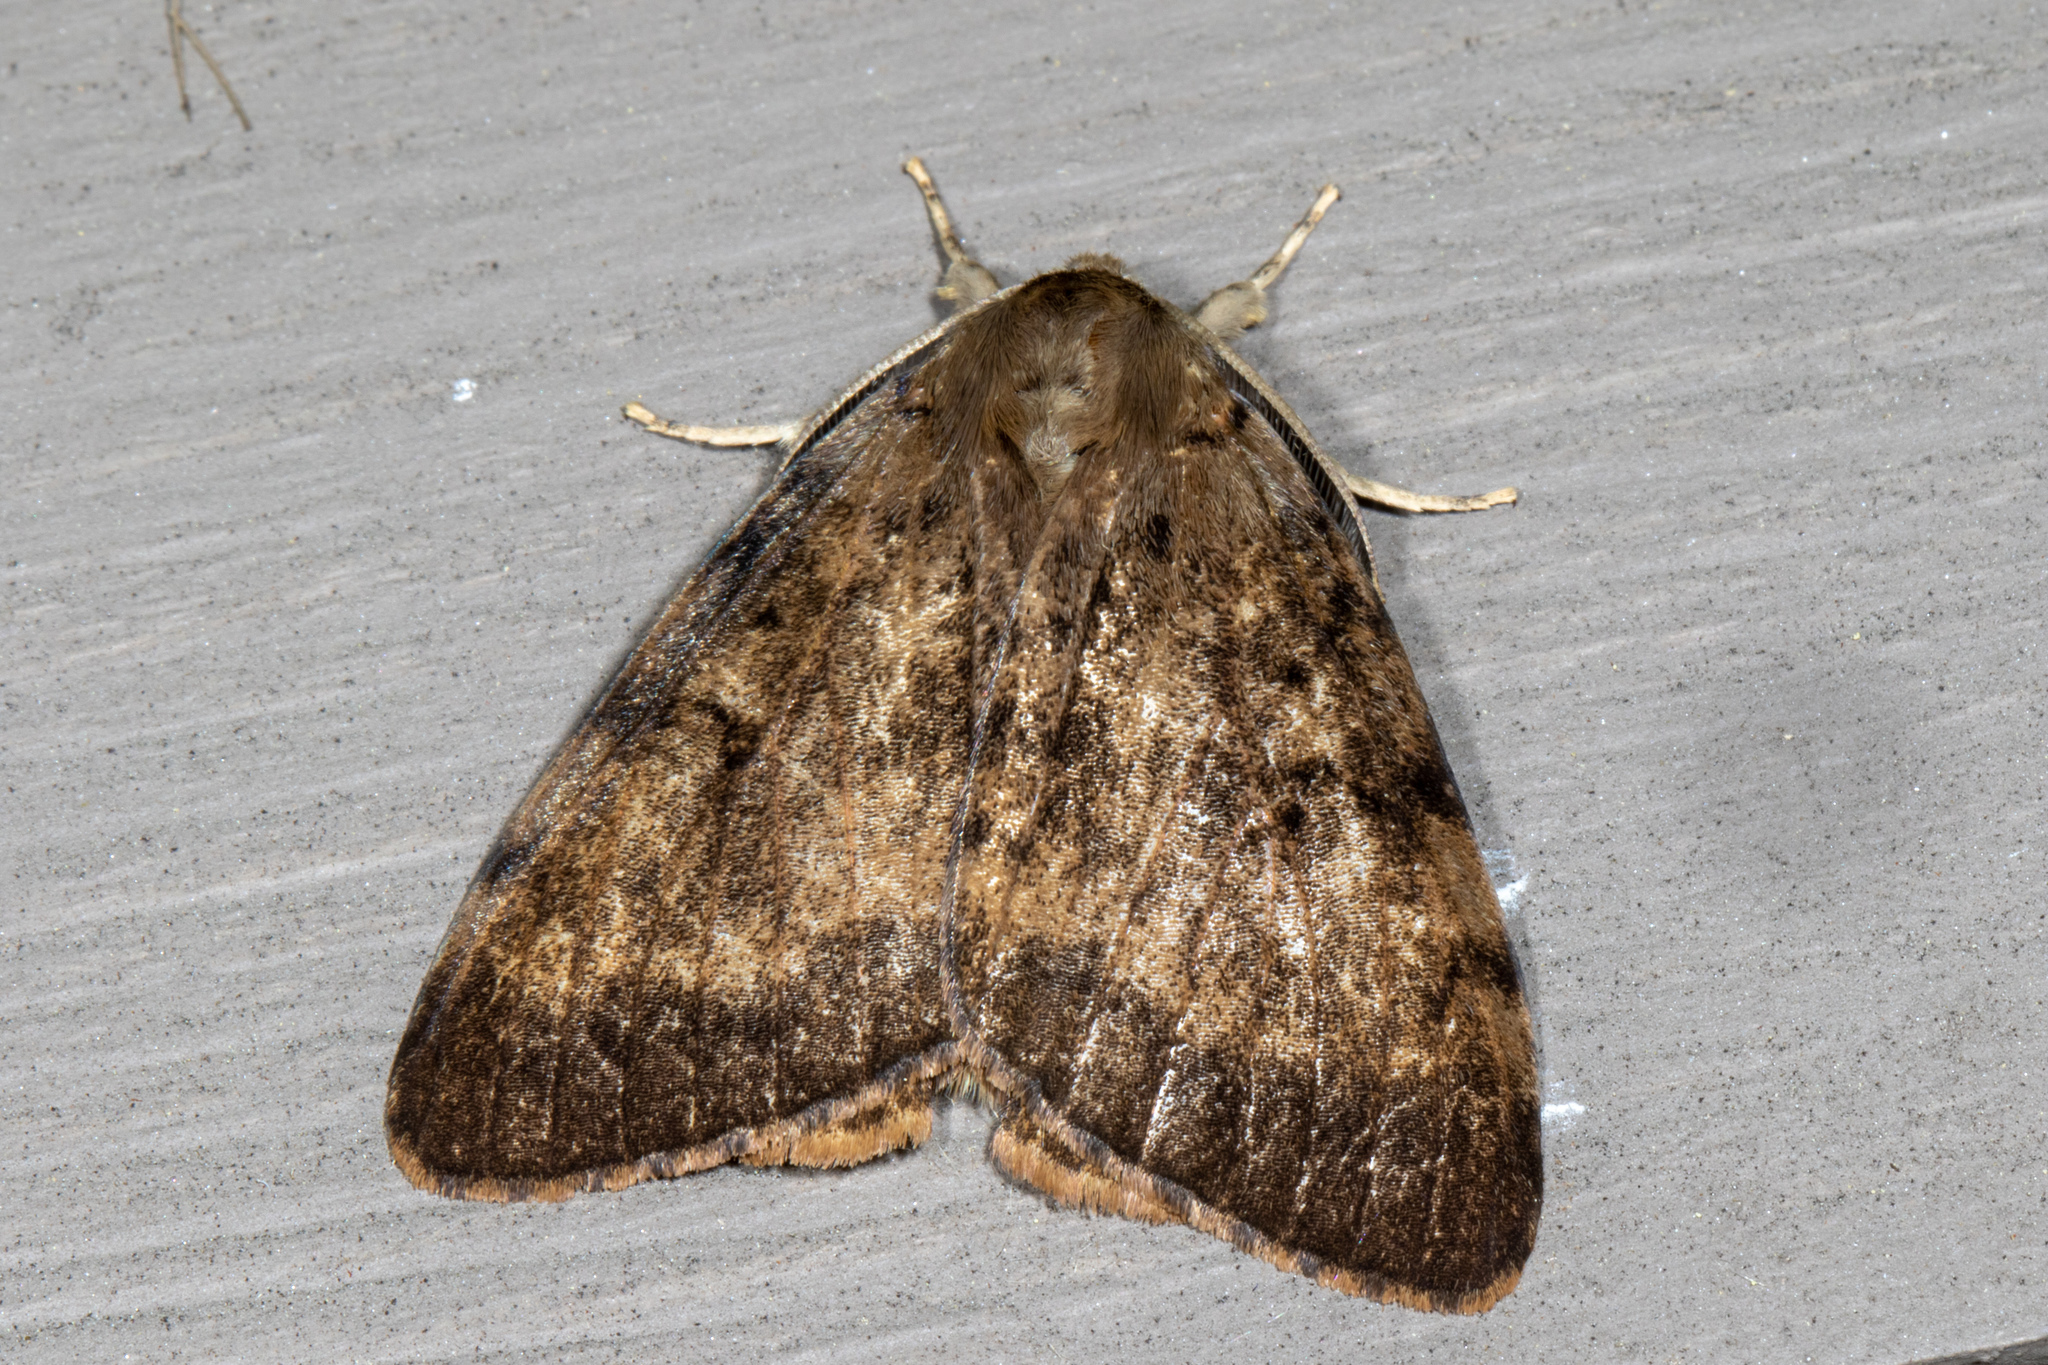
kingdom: Animalia
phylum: Arthropoda
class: Insecta
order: Lepidoptera
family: Erebidae
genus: Lymantria
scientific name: Lymantria dispar
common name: Gypsy moth
